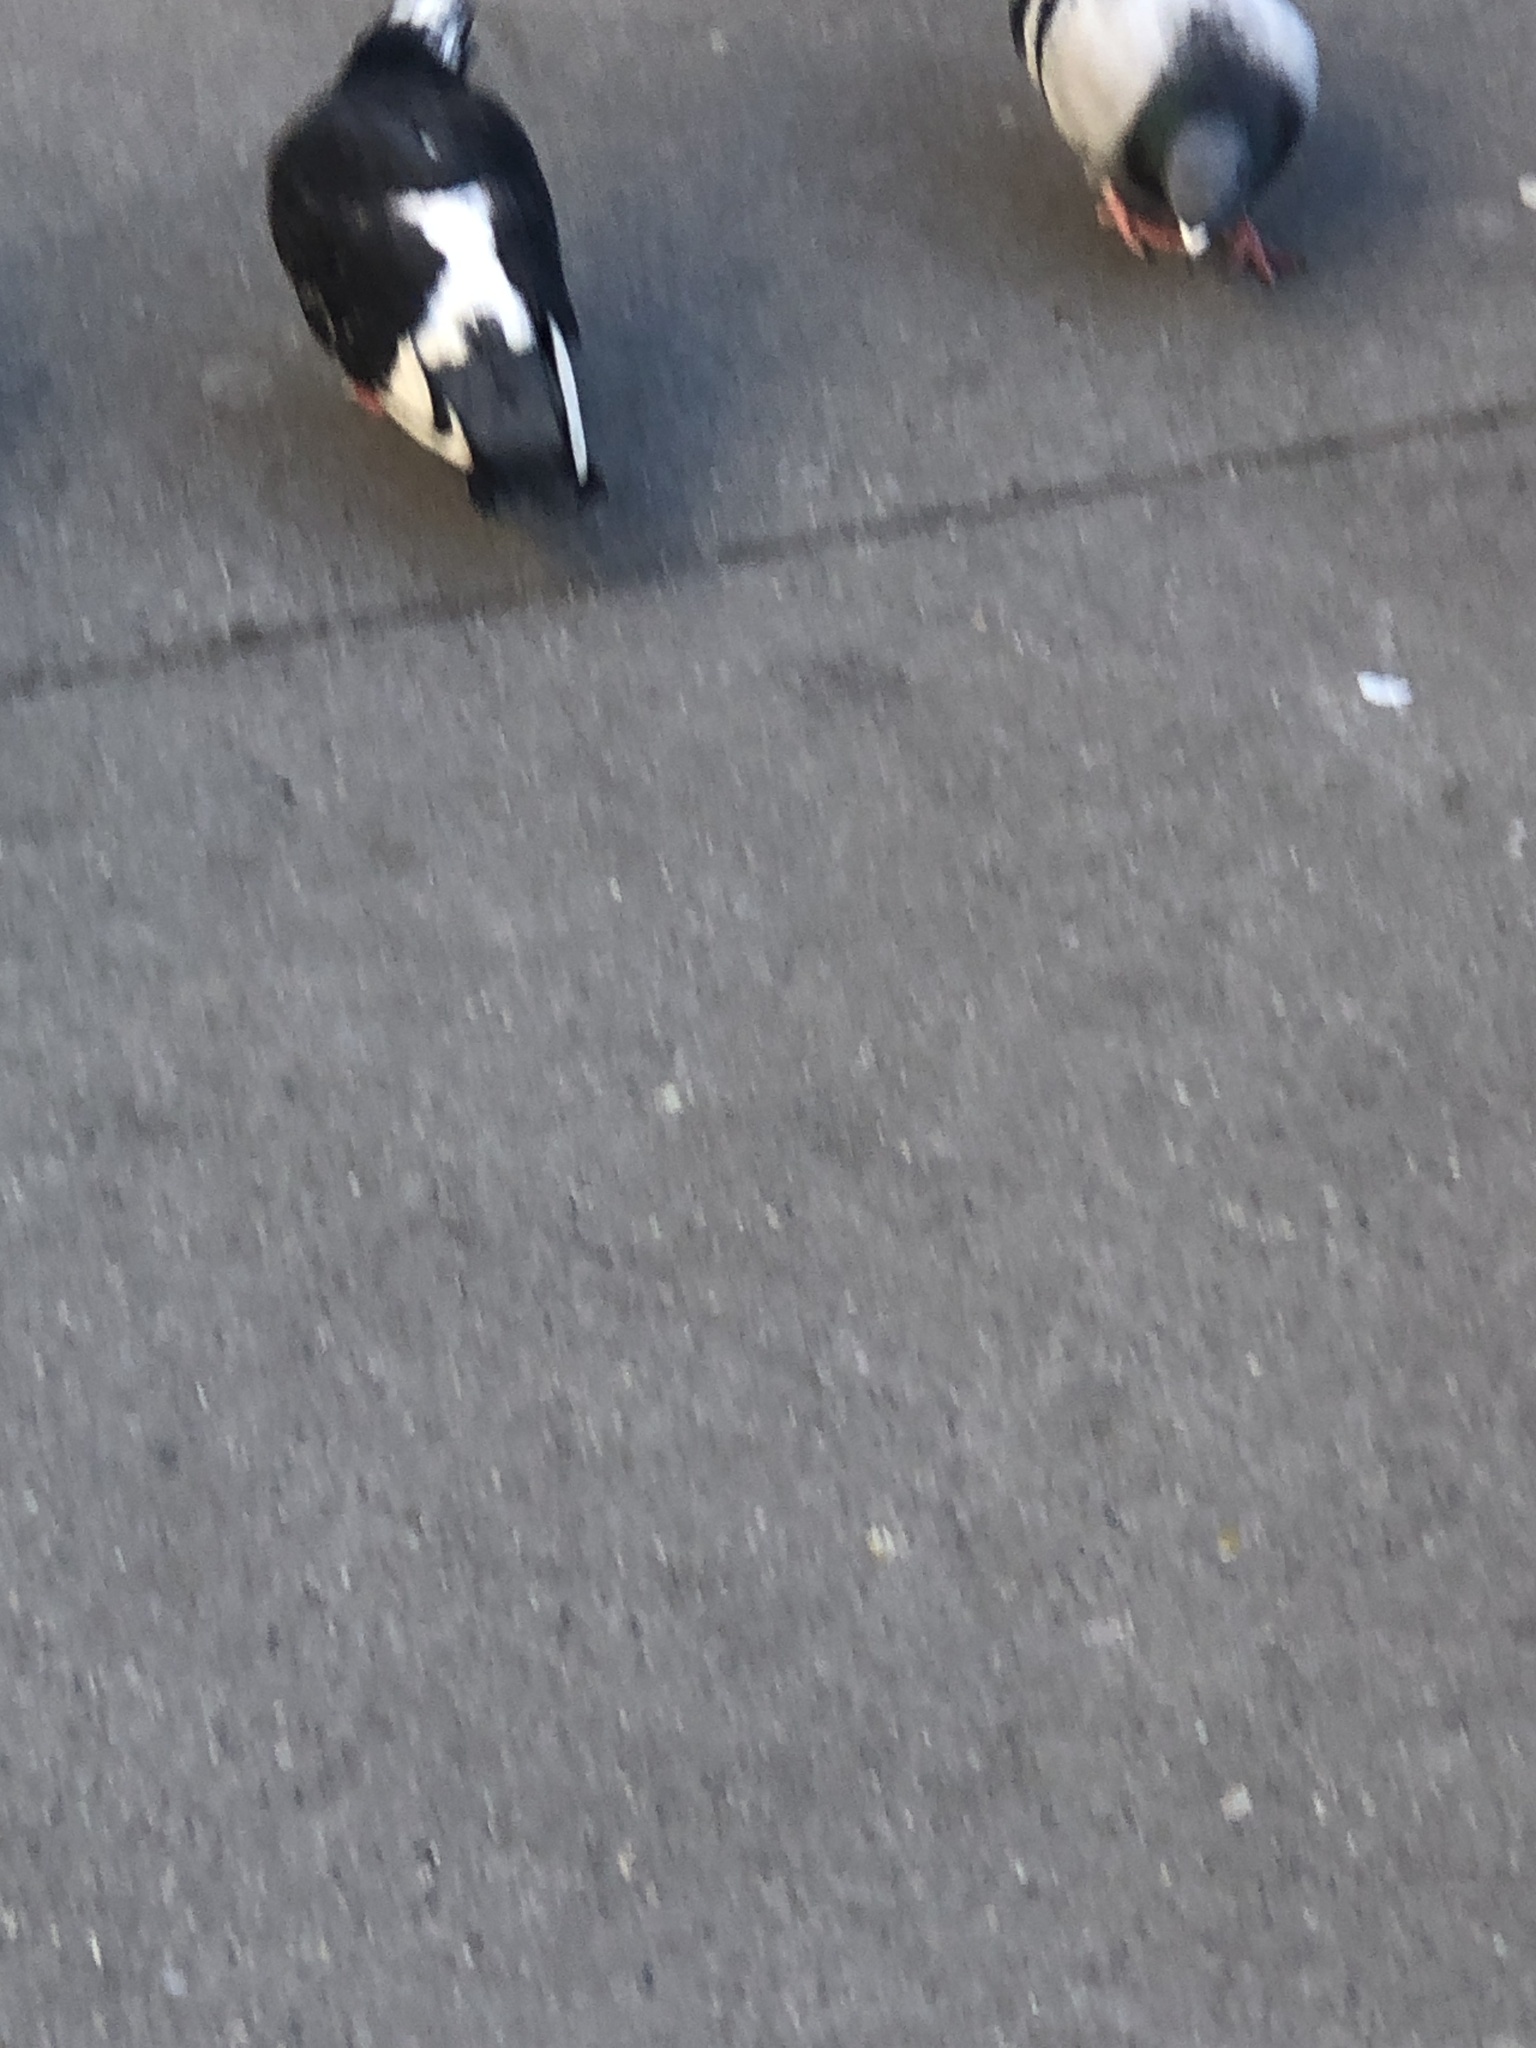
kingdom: Animalia
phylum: Chordata
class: Aves
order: Columbiformes
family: Columbidae
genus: Columba
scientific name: Columba livia
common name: Rock pigeon
